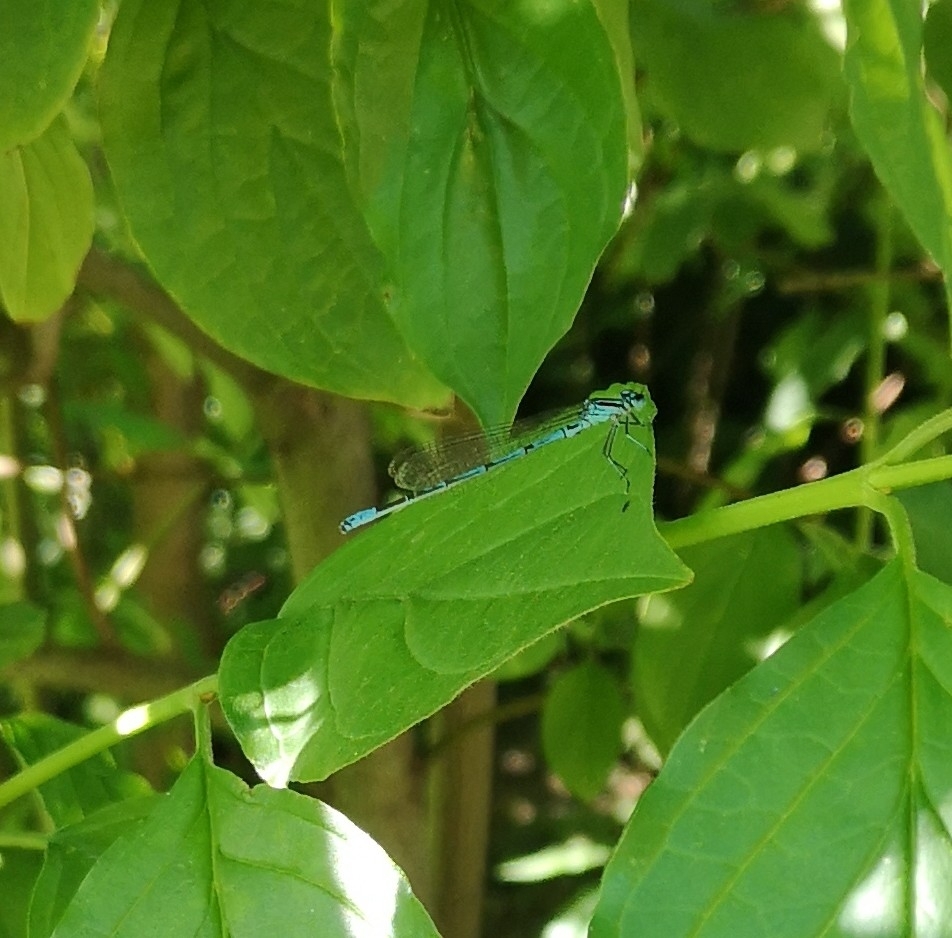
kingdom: Animalia
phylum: Arthropoda
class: Insecta
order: Odonata
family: Coenagrionidae
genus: Coenagrion
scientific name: Coenagrion puella
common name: Azure damselfly
